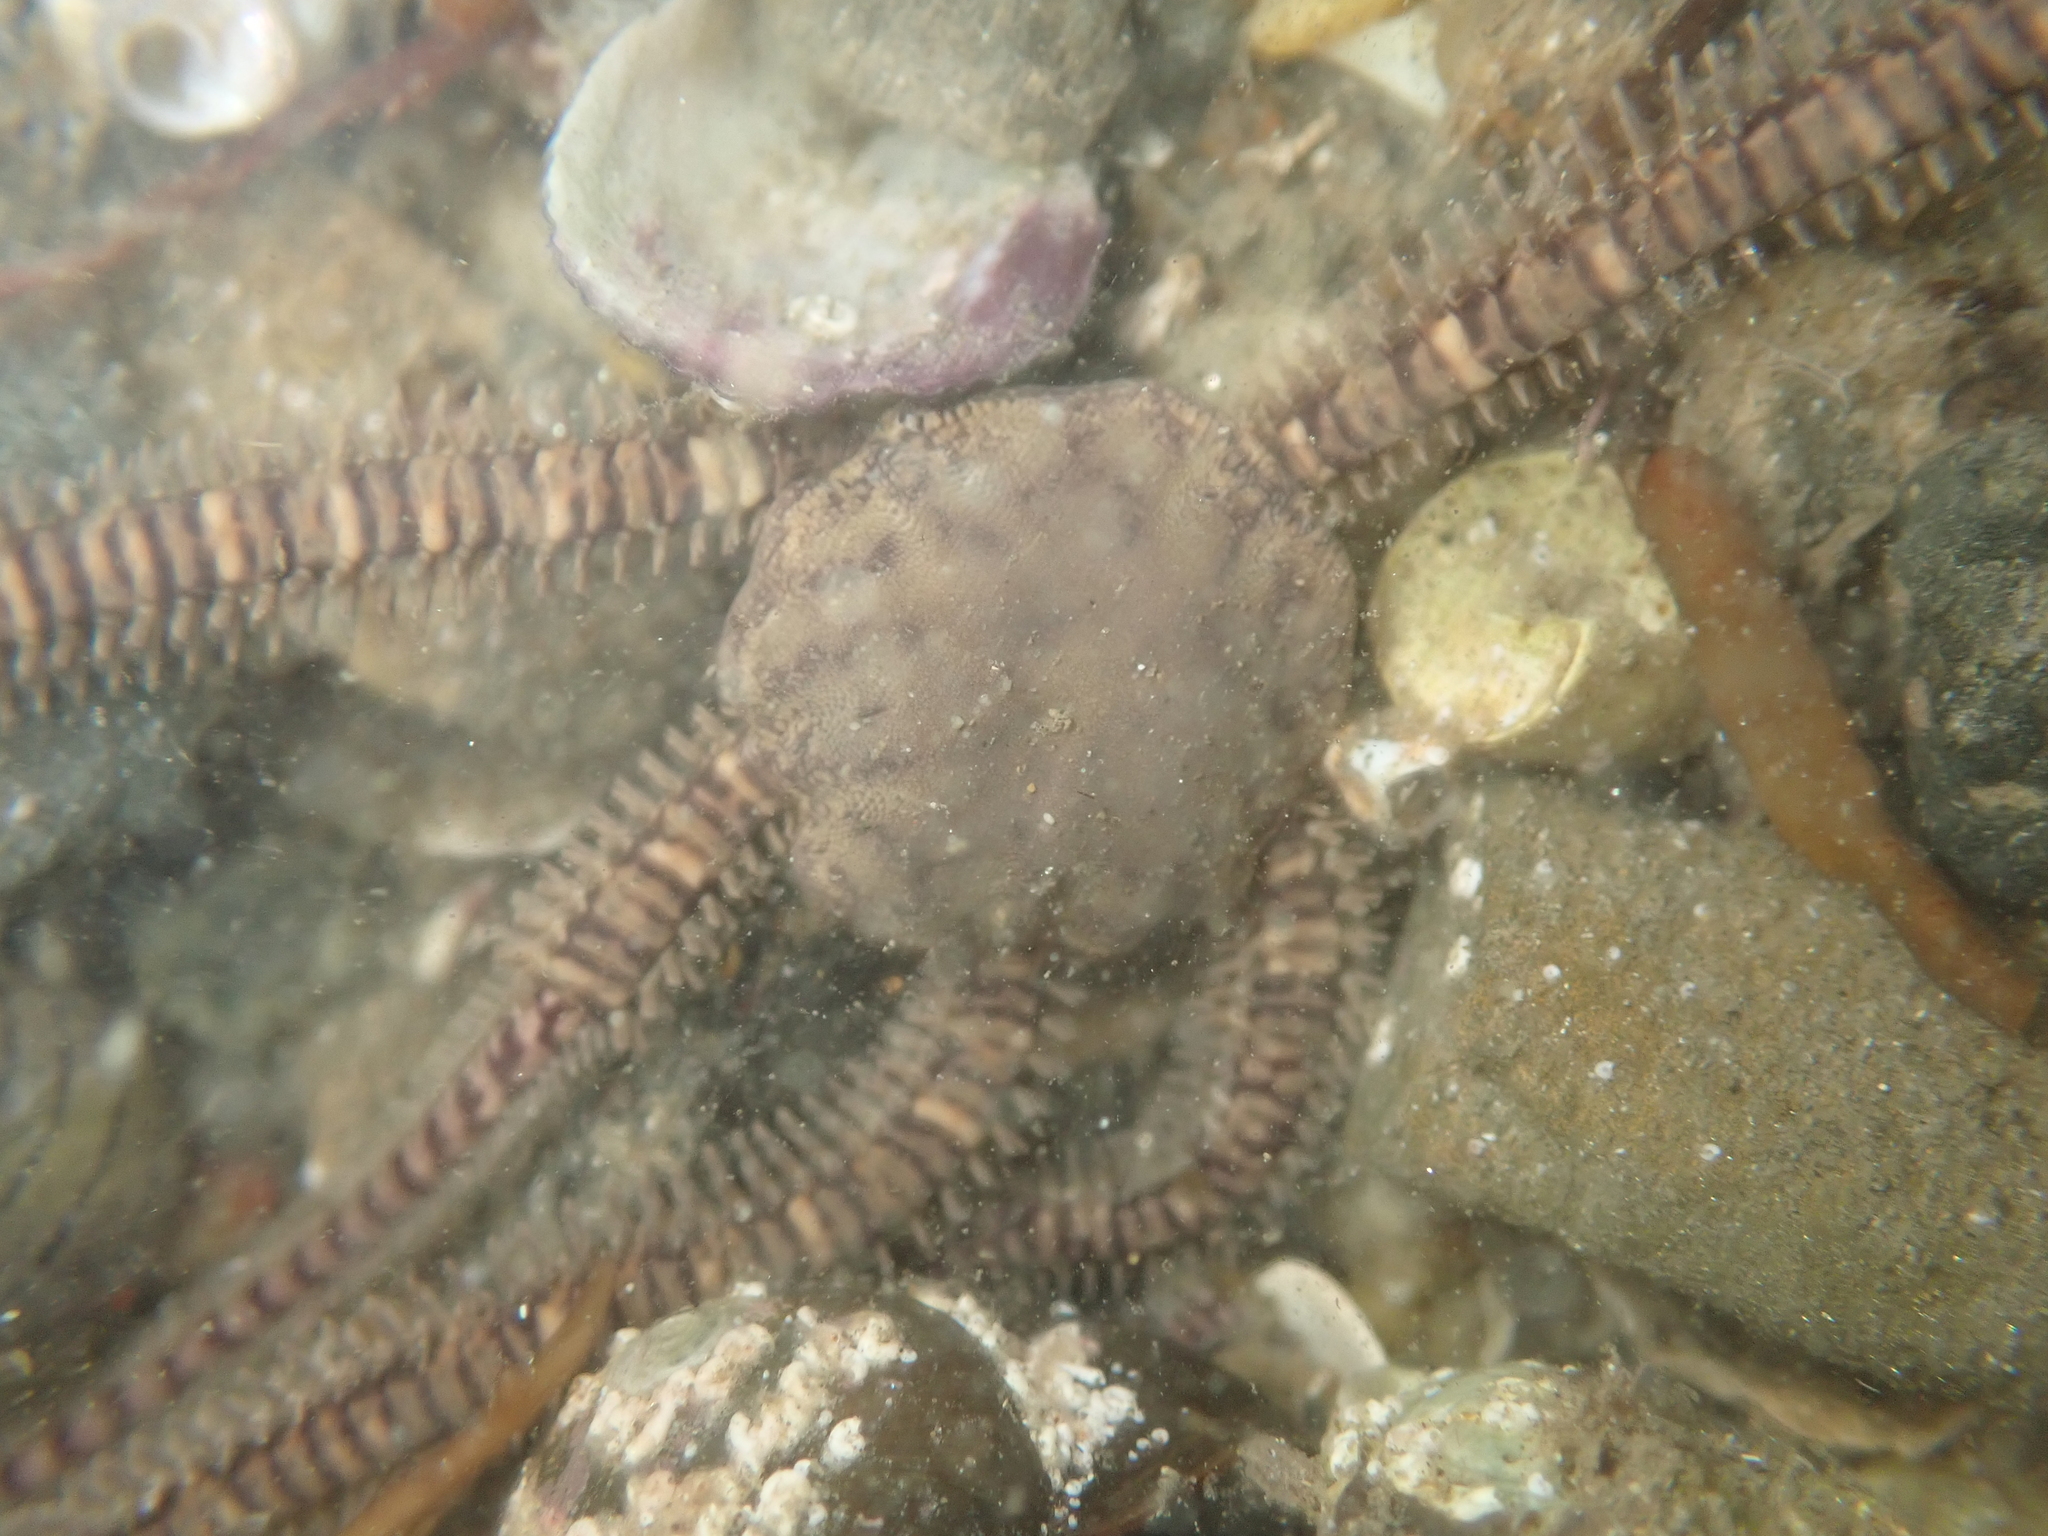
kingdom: Animalia
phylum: Echinodermata
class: Ophiuroidea
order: Amphilepidida
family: Ophionereididae
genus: Ophionereis
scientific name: Ophionereis fasciata
